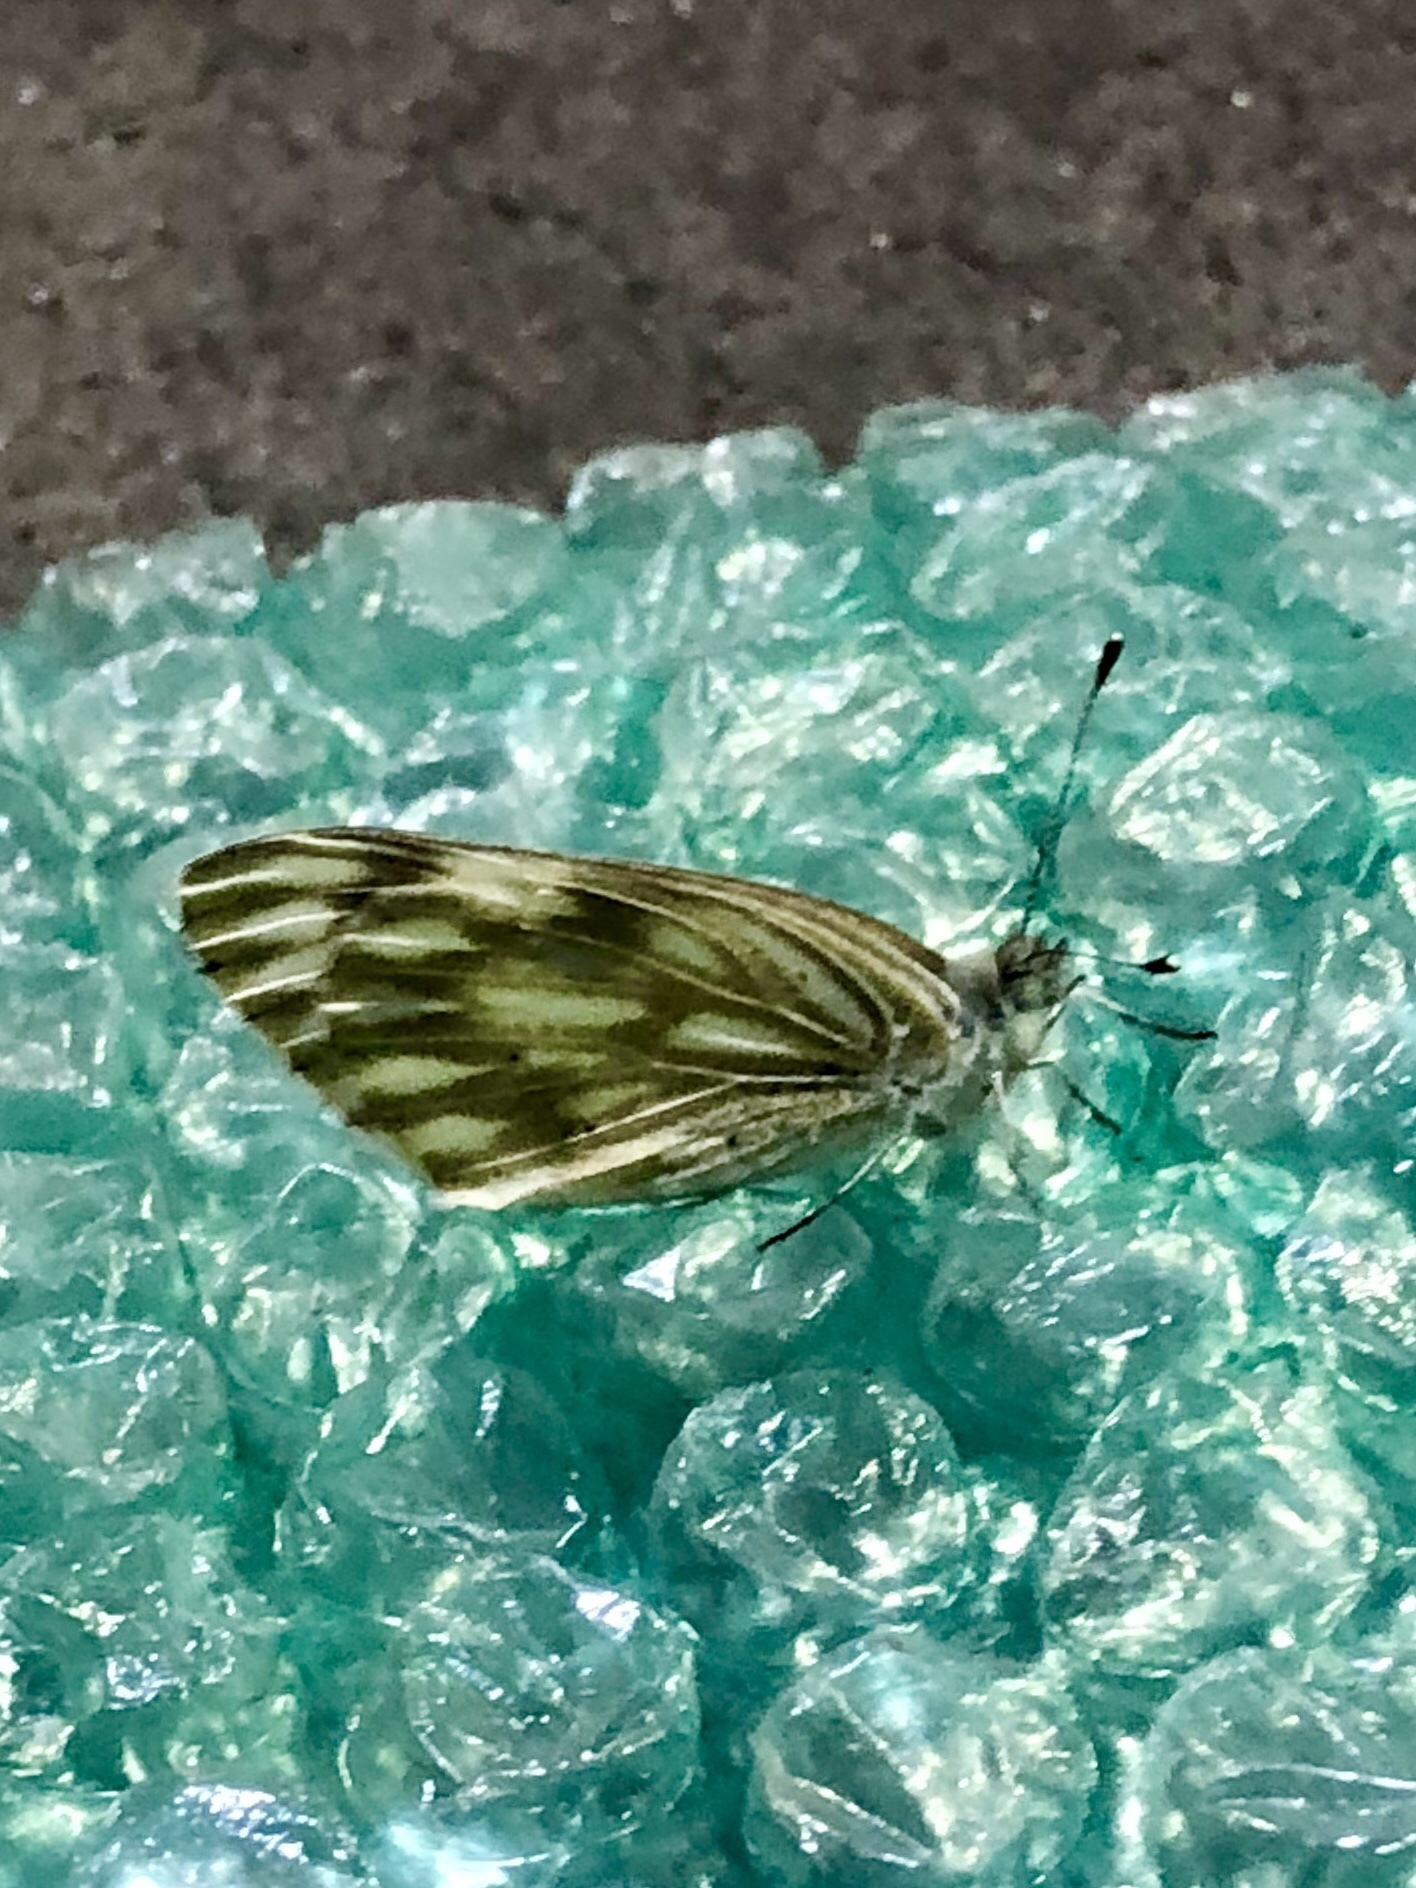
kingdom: Animalia
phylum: Arthropoda
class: Insecta
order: Lepidoptera
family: Pieridae
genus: Pontia
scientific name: Pontia protodice
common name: Checkered white
